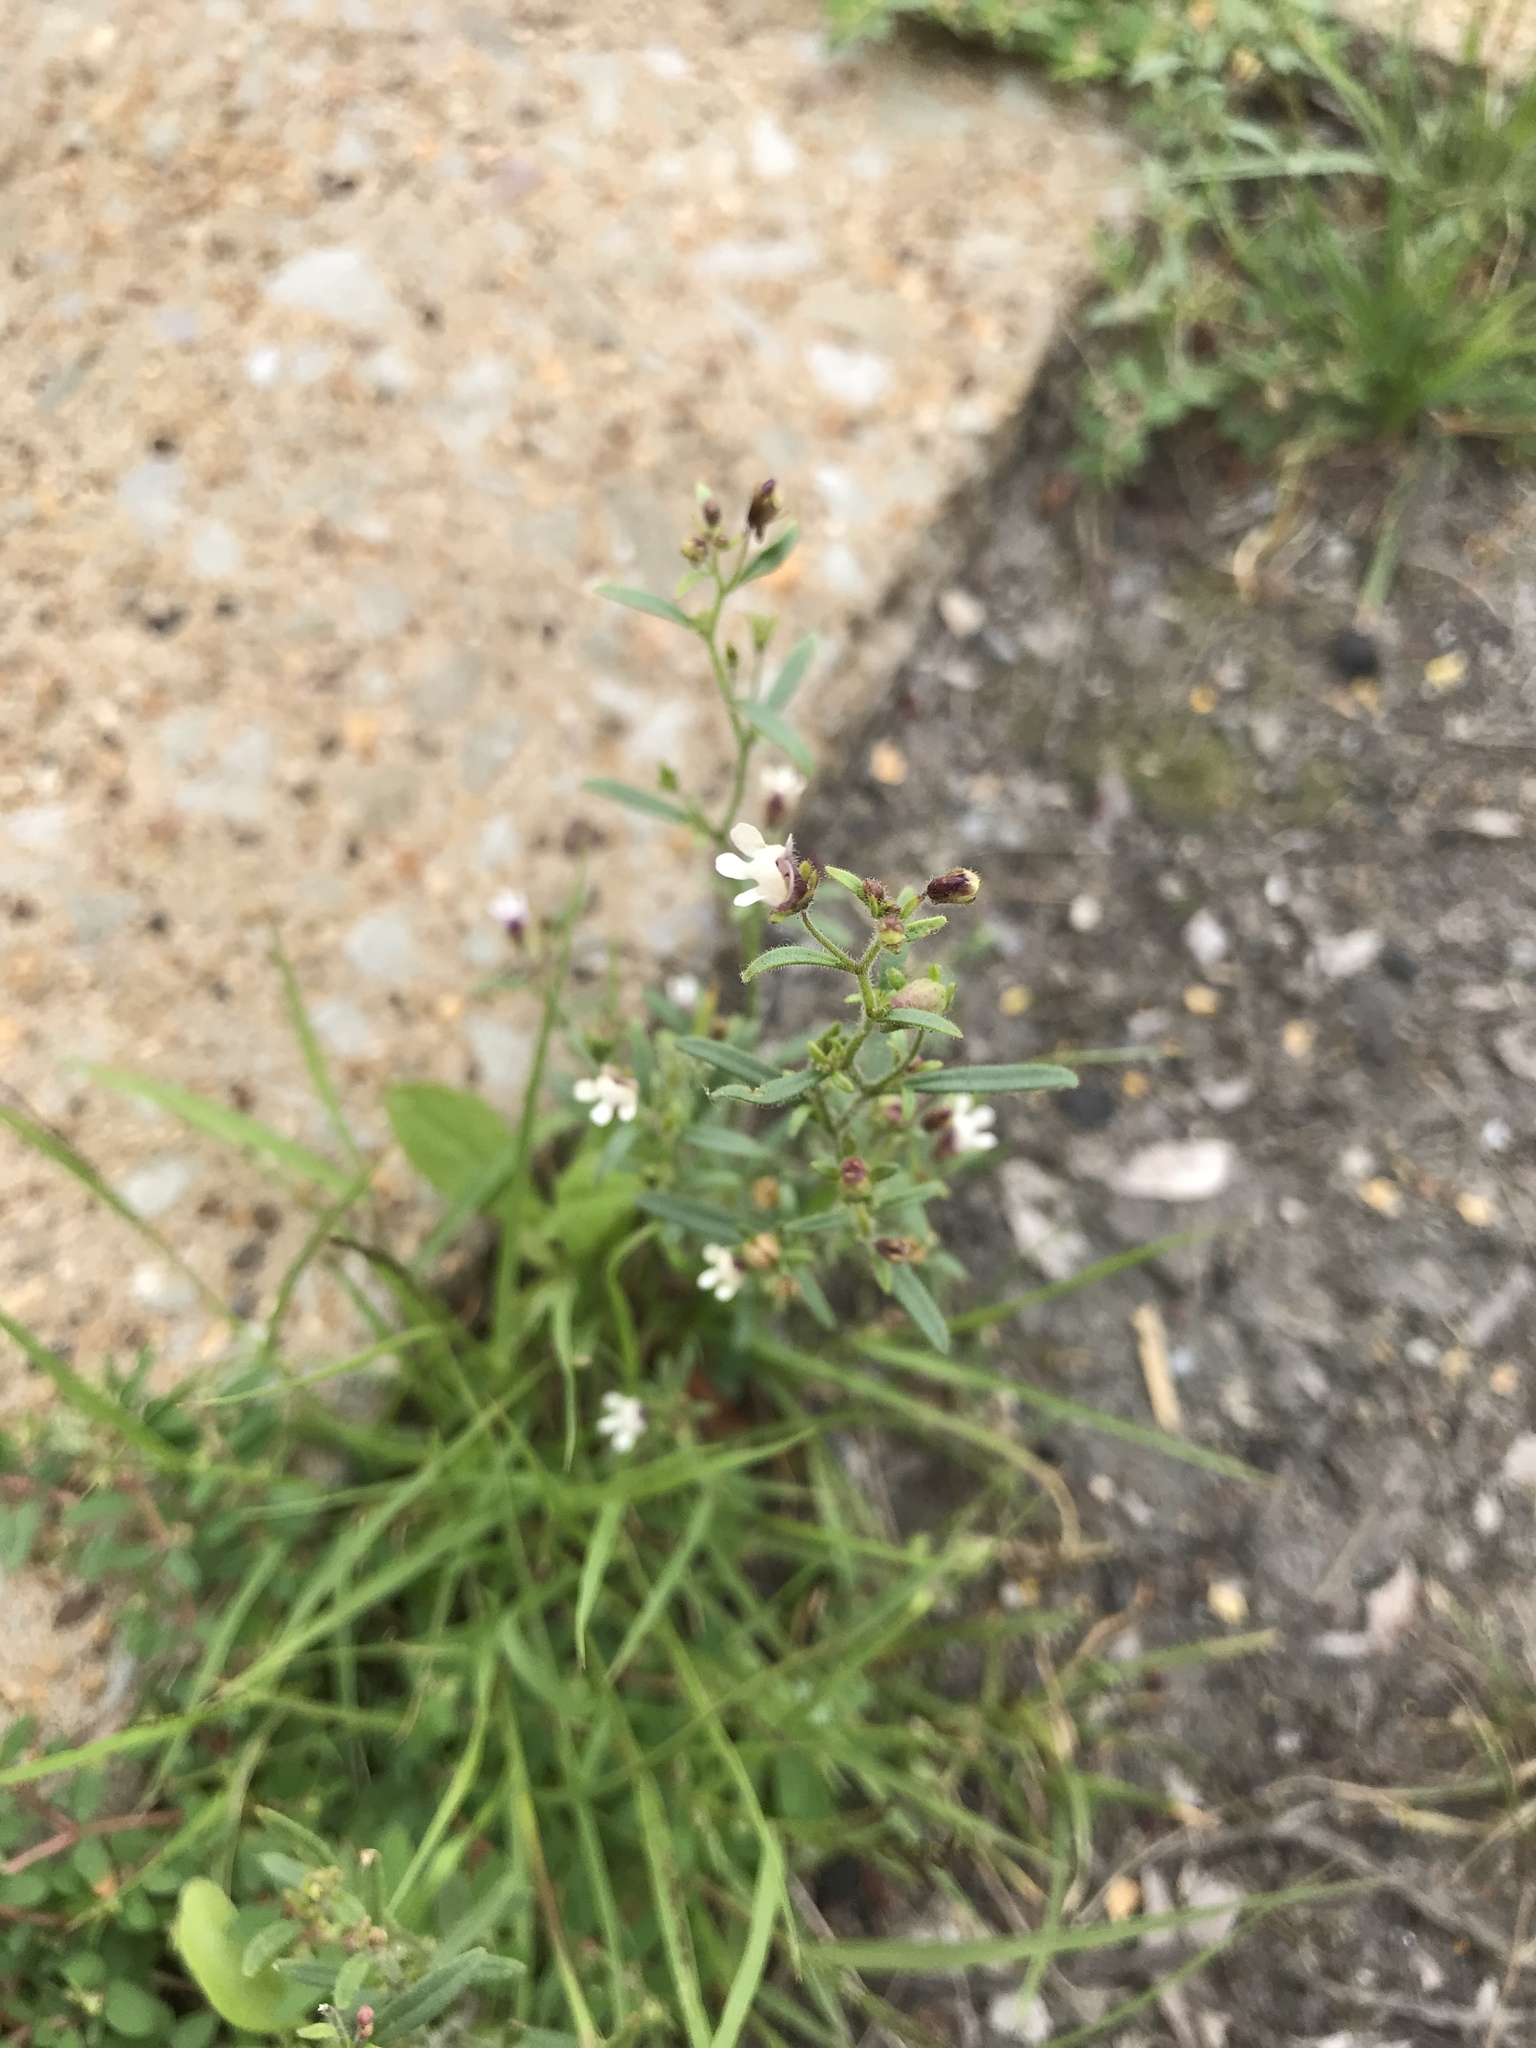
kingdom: Plantae
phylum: Tracheophyta
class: Magnoliopsida
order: Lamiales
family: Plantaginaceae
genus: Chaenorhinum
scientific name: Chaenorhinum minus
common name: Dwarf snapdragon
